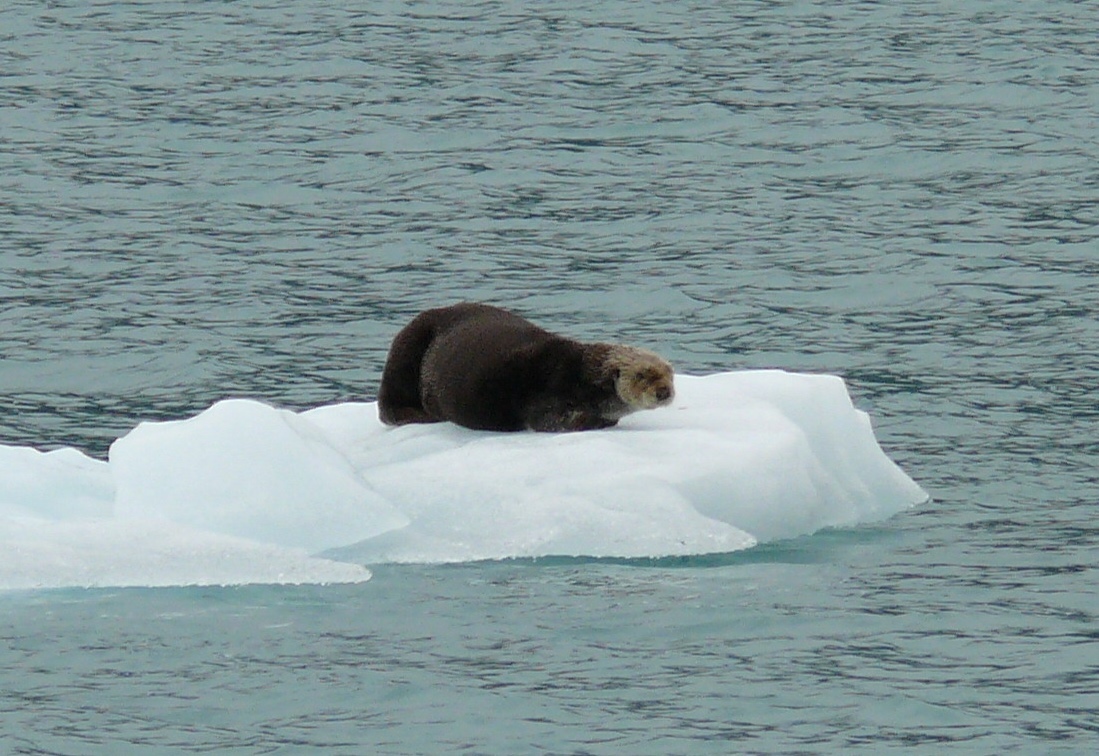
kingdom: Animalia
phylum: Chordata
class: Mammalia
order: Carnivora
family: Mustelidae
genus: Enhydra
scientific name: Enhydra lutris
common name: Sea otter
